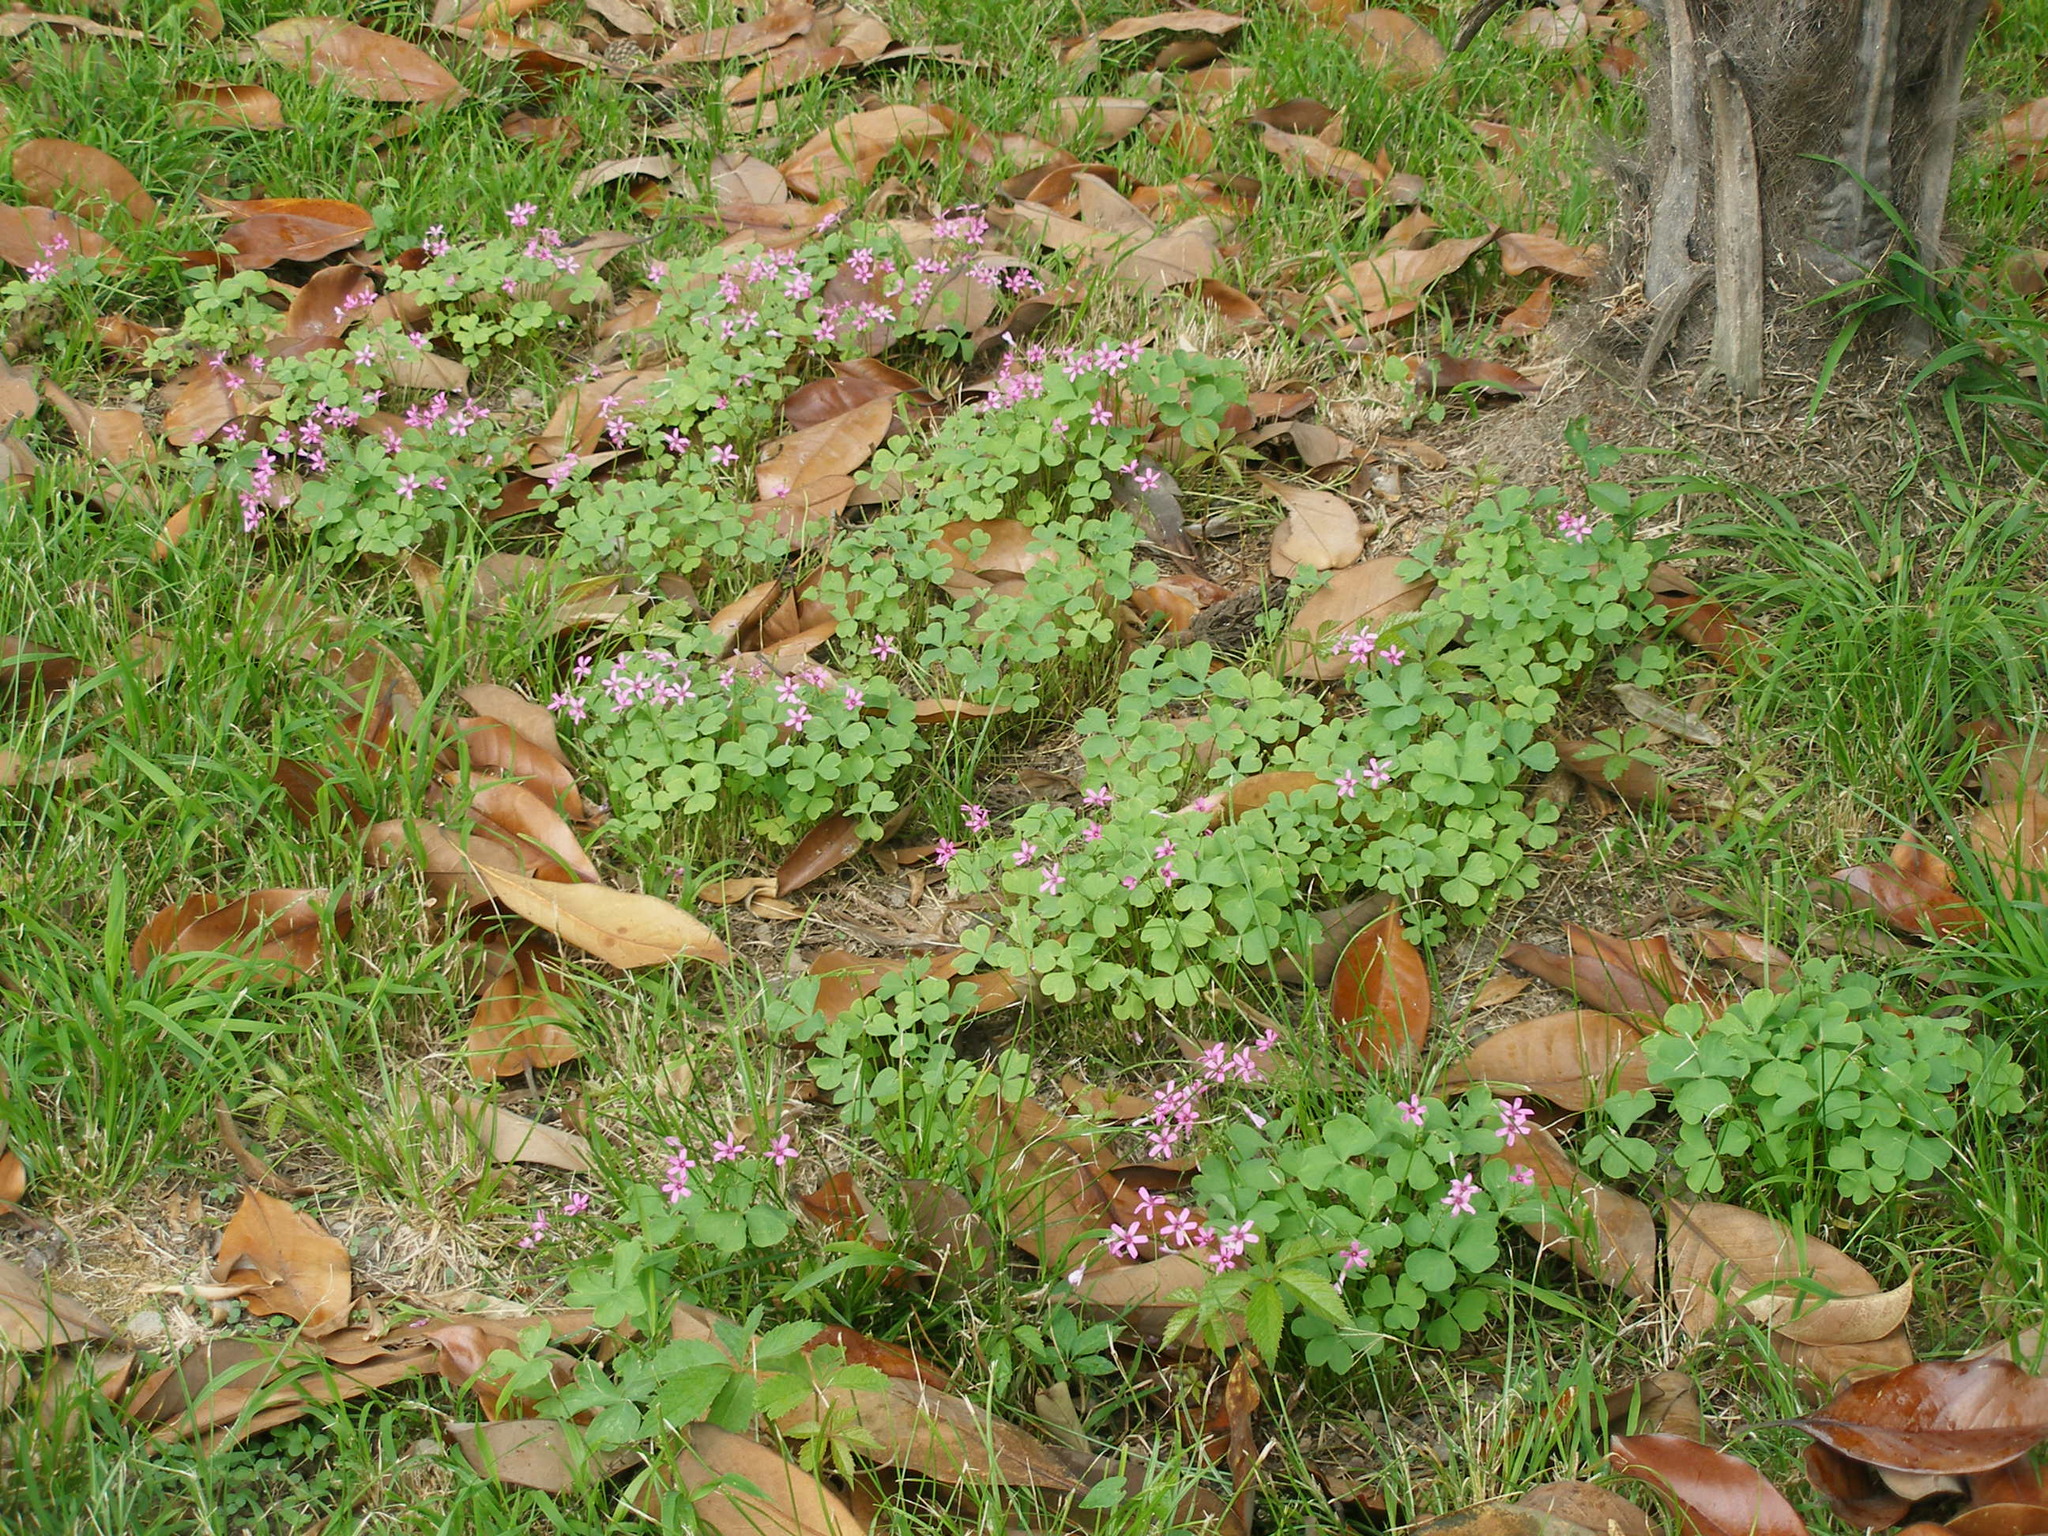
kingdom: Plantae
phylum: Tracheophyta
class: Magnoliopsida
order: Oxalidales
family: Oxalidaceae
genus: Oxalis
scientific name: Oxalis articulata
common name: Pink-sorrel
